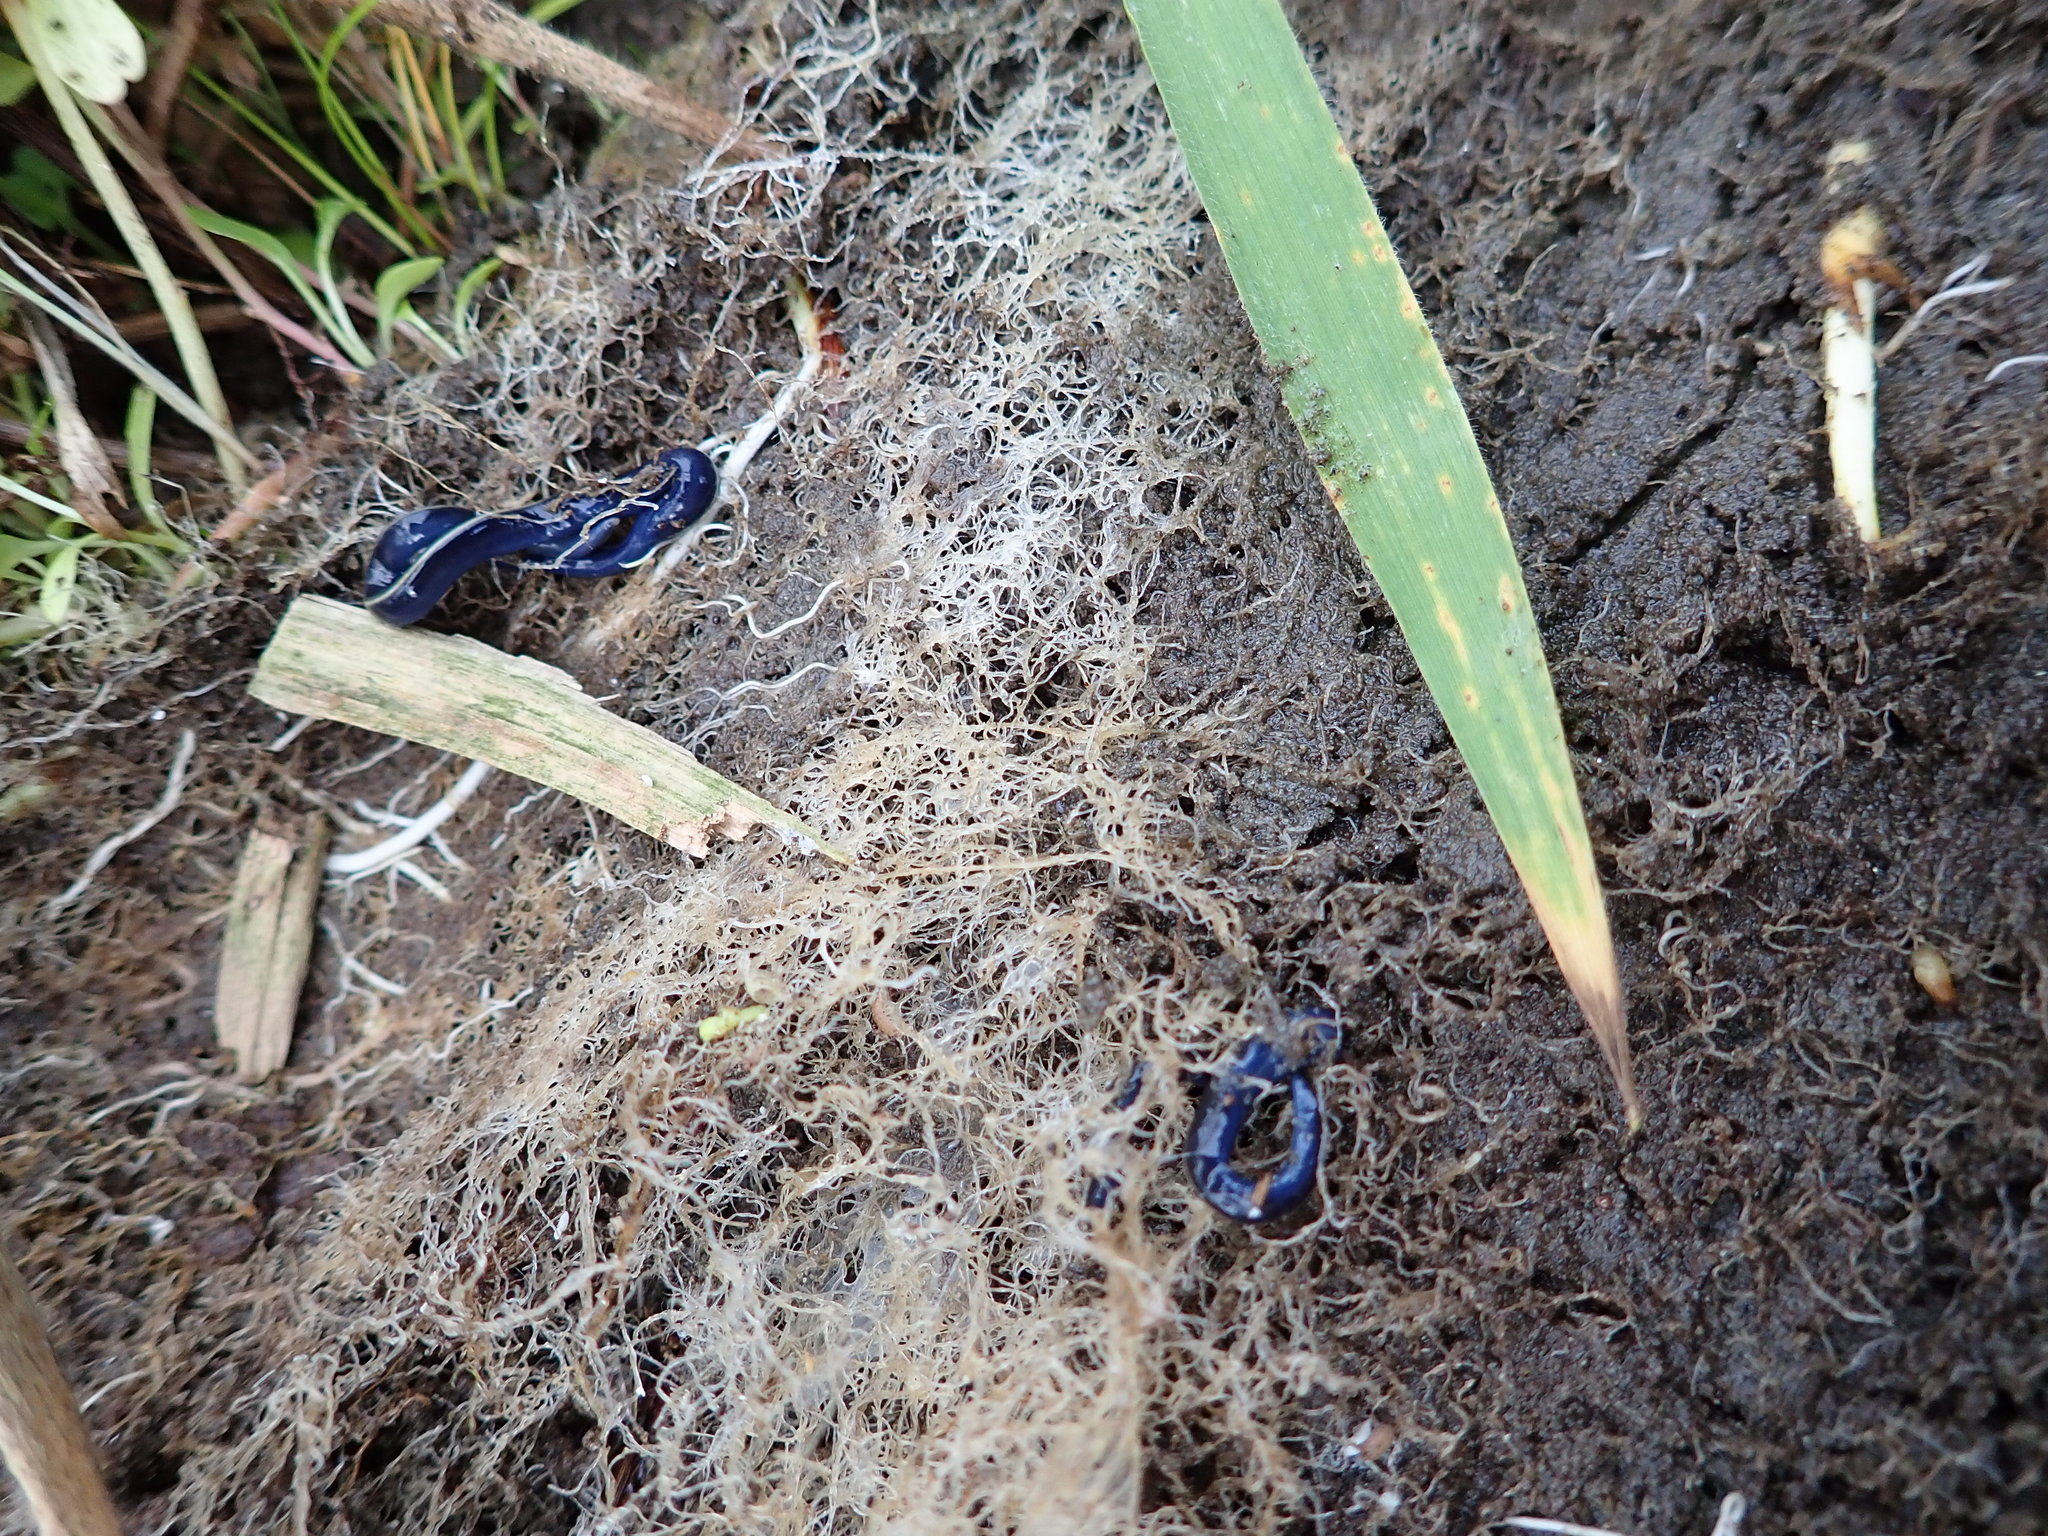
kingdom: Animalia
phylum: Platyhelminthes
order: Tricladida
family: Geoplanidae
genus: Caenoplana
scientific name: Caenoplana coerulea
